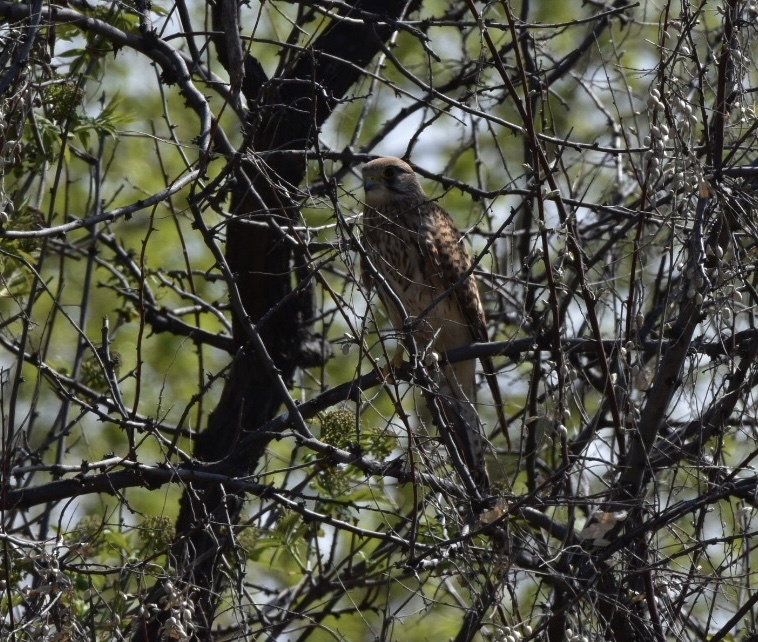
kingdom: Animalia
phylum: Chordata
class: Aves
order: Falconiformes
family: Falconidae
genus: Falco
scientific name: Falco tinnunculus
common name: Common kestrel
